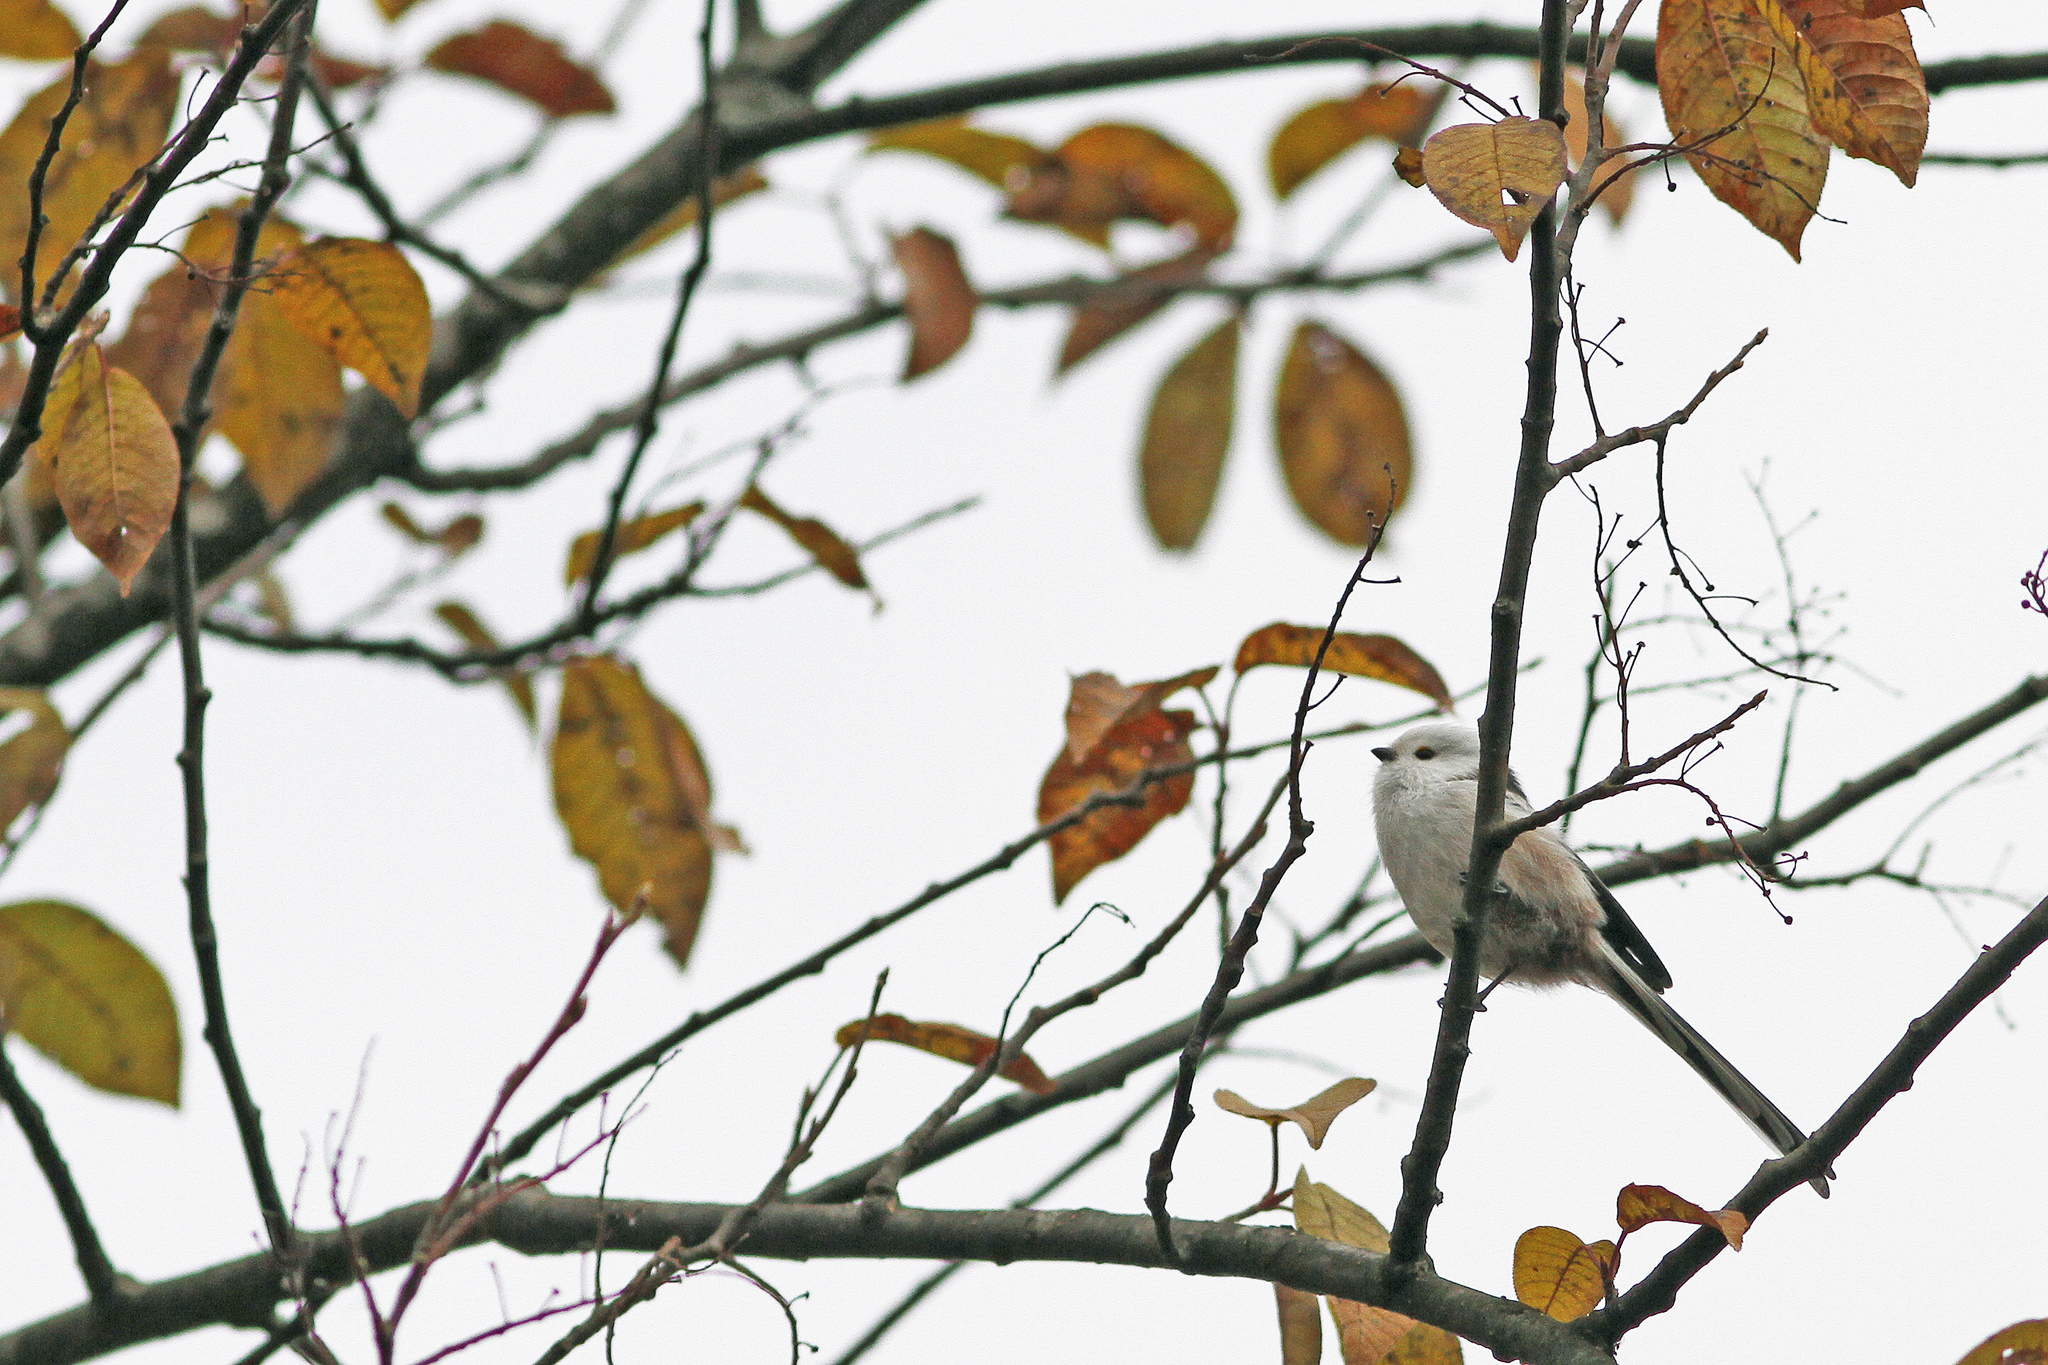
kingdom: Animalia
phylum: Chordata
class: Aves
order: Passeriformes
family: Aegithalidae
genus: Aegithalos
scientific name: Aegithalos caudatus
